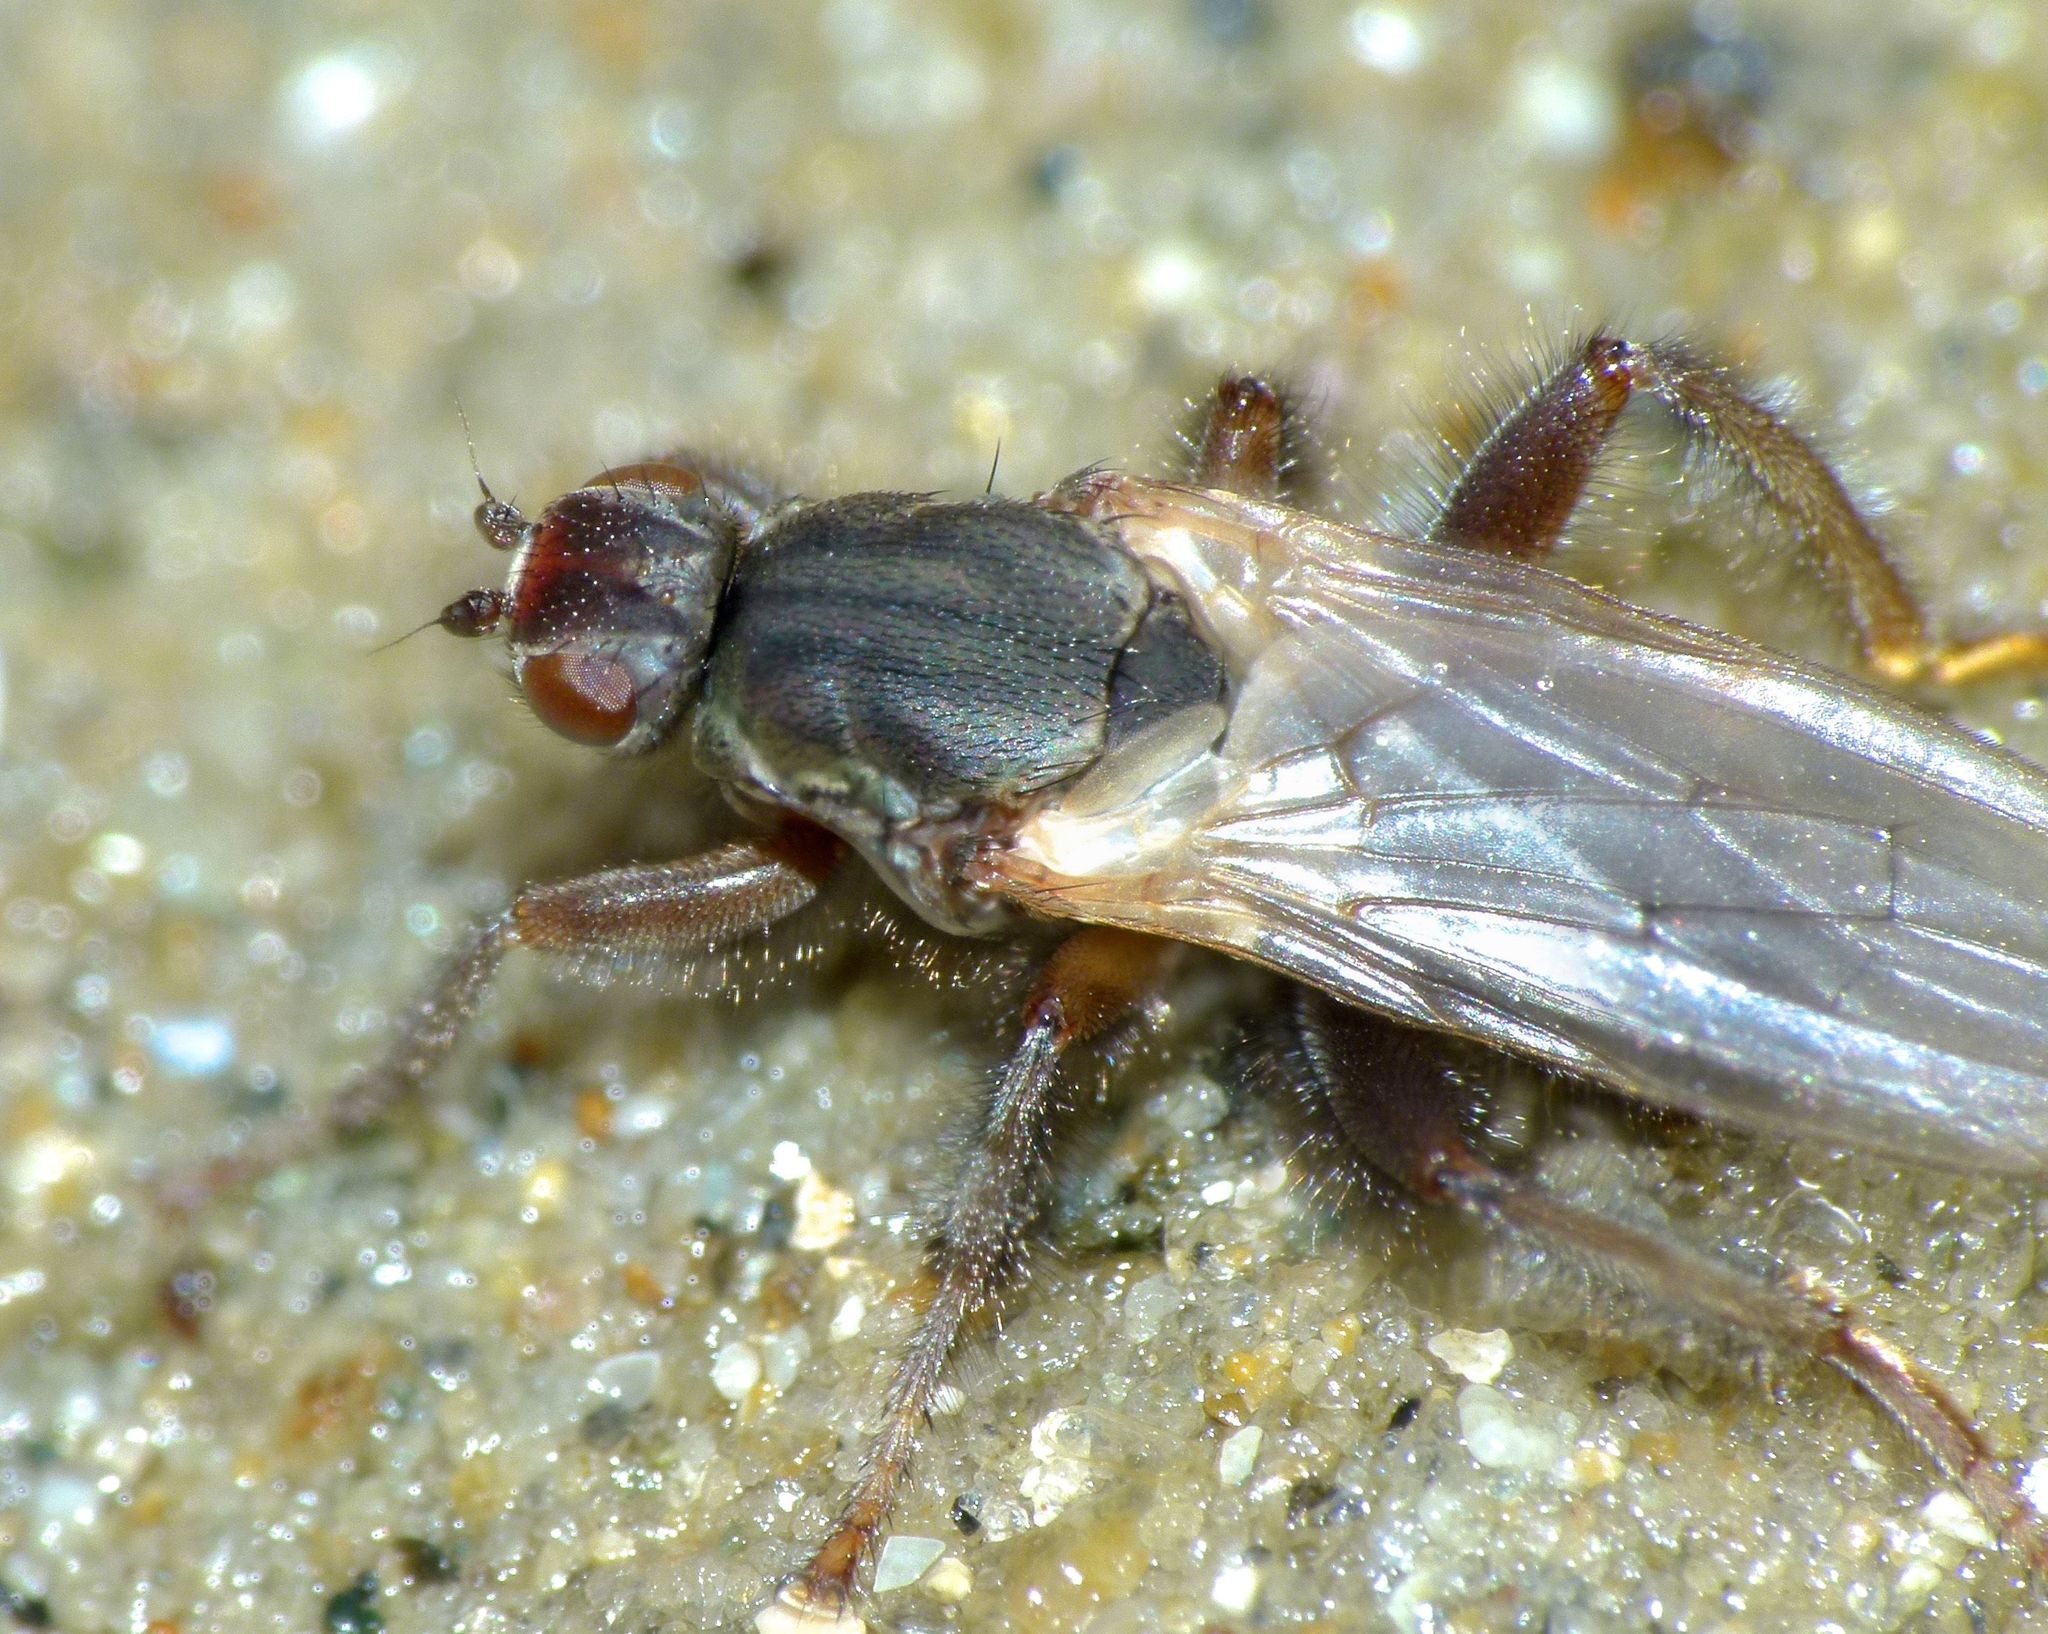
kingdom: Animalia
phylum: Arthropoda
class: Insecta
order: Diptera
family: Coelopidae
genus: Coelopella
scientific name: Coelopella curvipes
